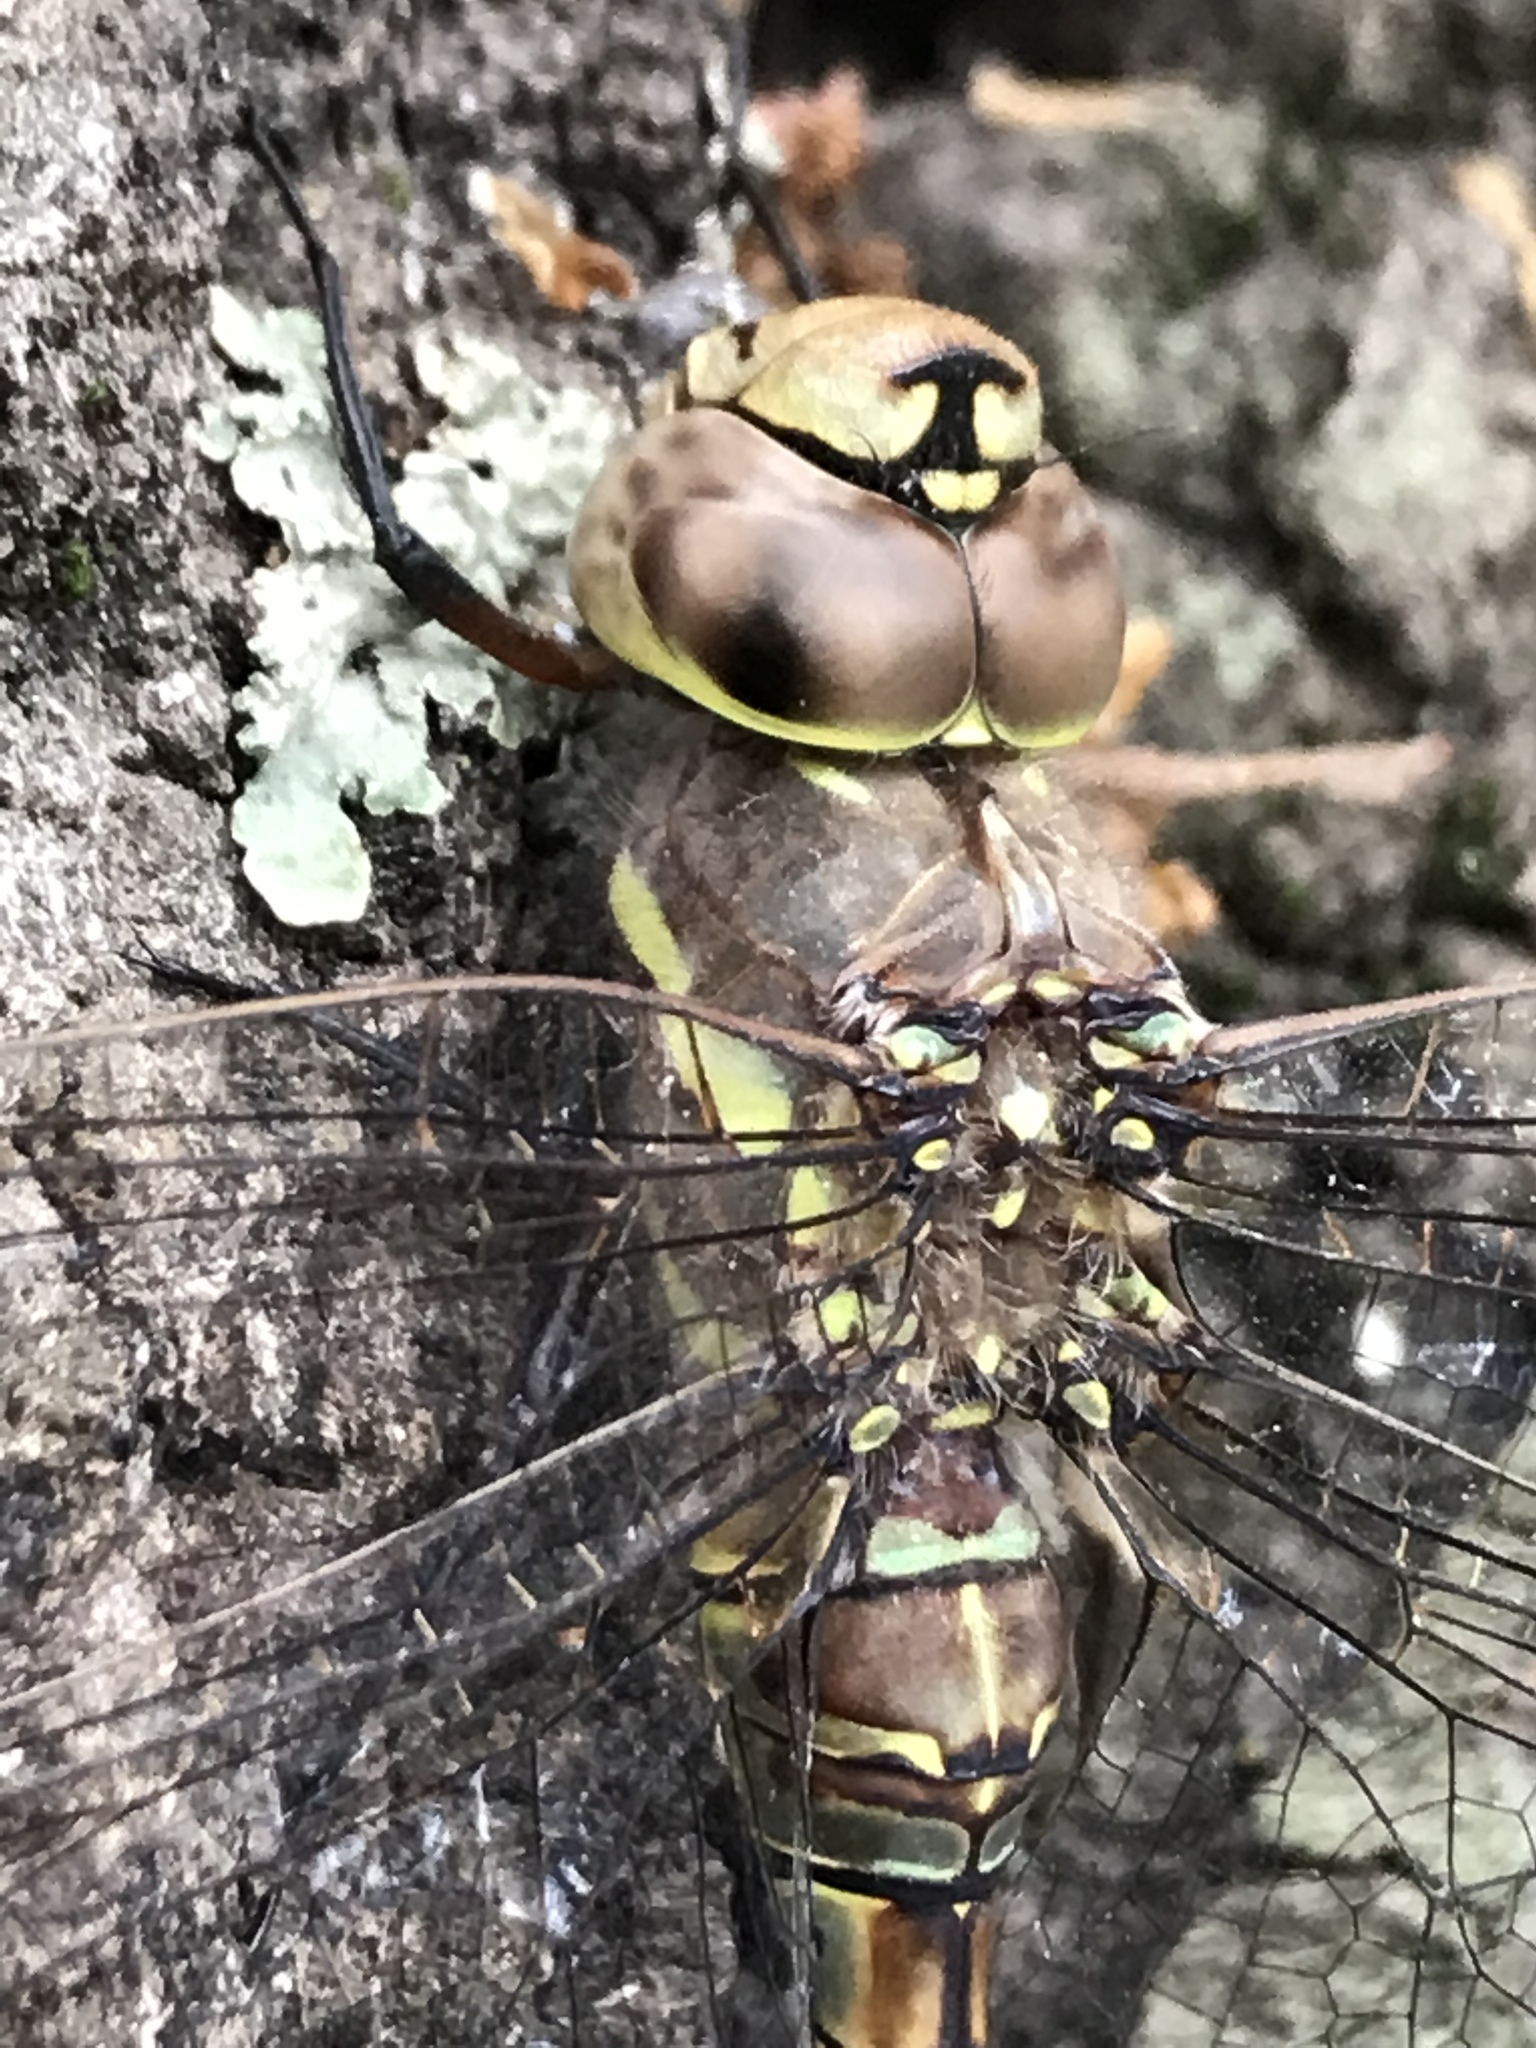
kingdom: Animalia
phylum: Arthropoda
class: Insecta
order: Odonata
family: Aeshnidae
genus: Rhionaeschna
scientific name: Rhionaeschna multicolor
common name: Blue-eyed darner
